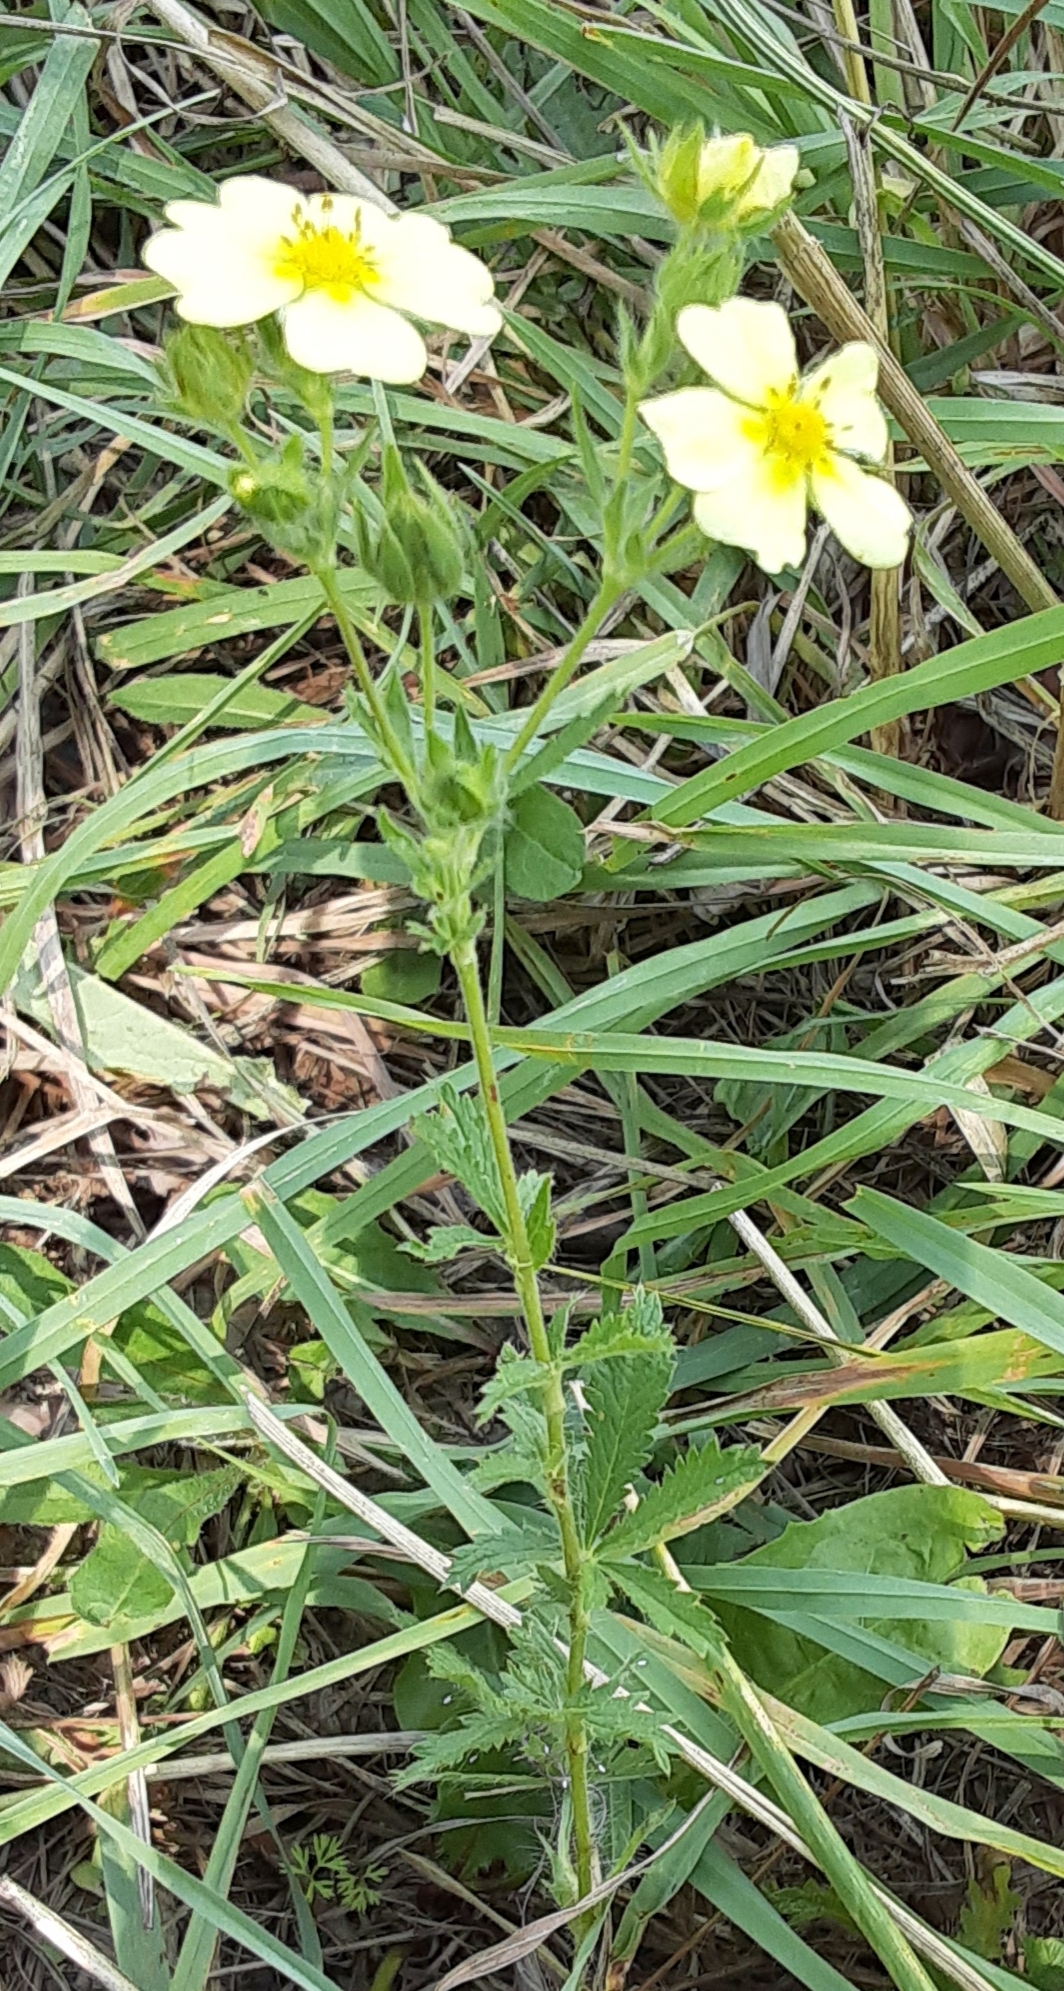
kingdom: Plantae
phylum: Tracheophyta
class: Magnoliopsida
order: Rosales
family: Rosaceae
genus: Potentilla
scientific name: Potentilla recta
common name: Sulphur cinquefoil
